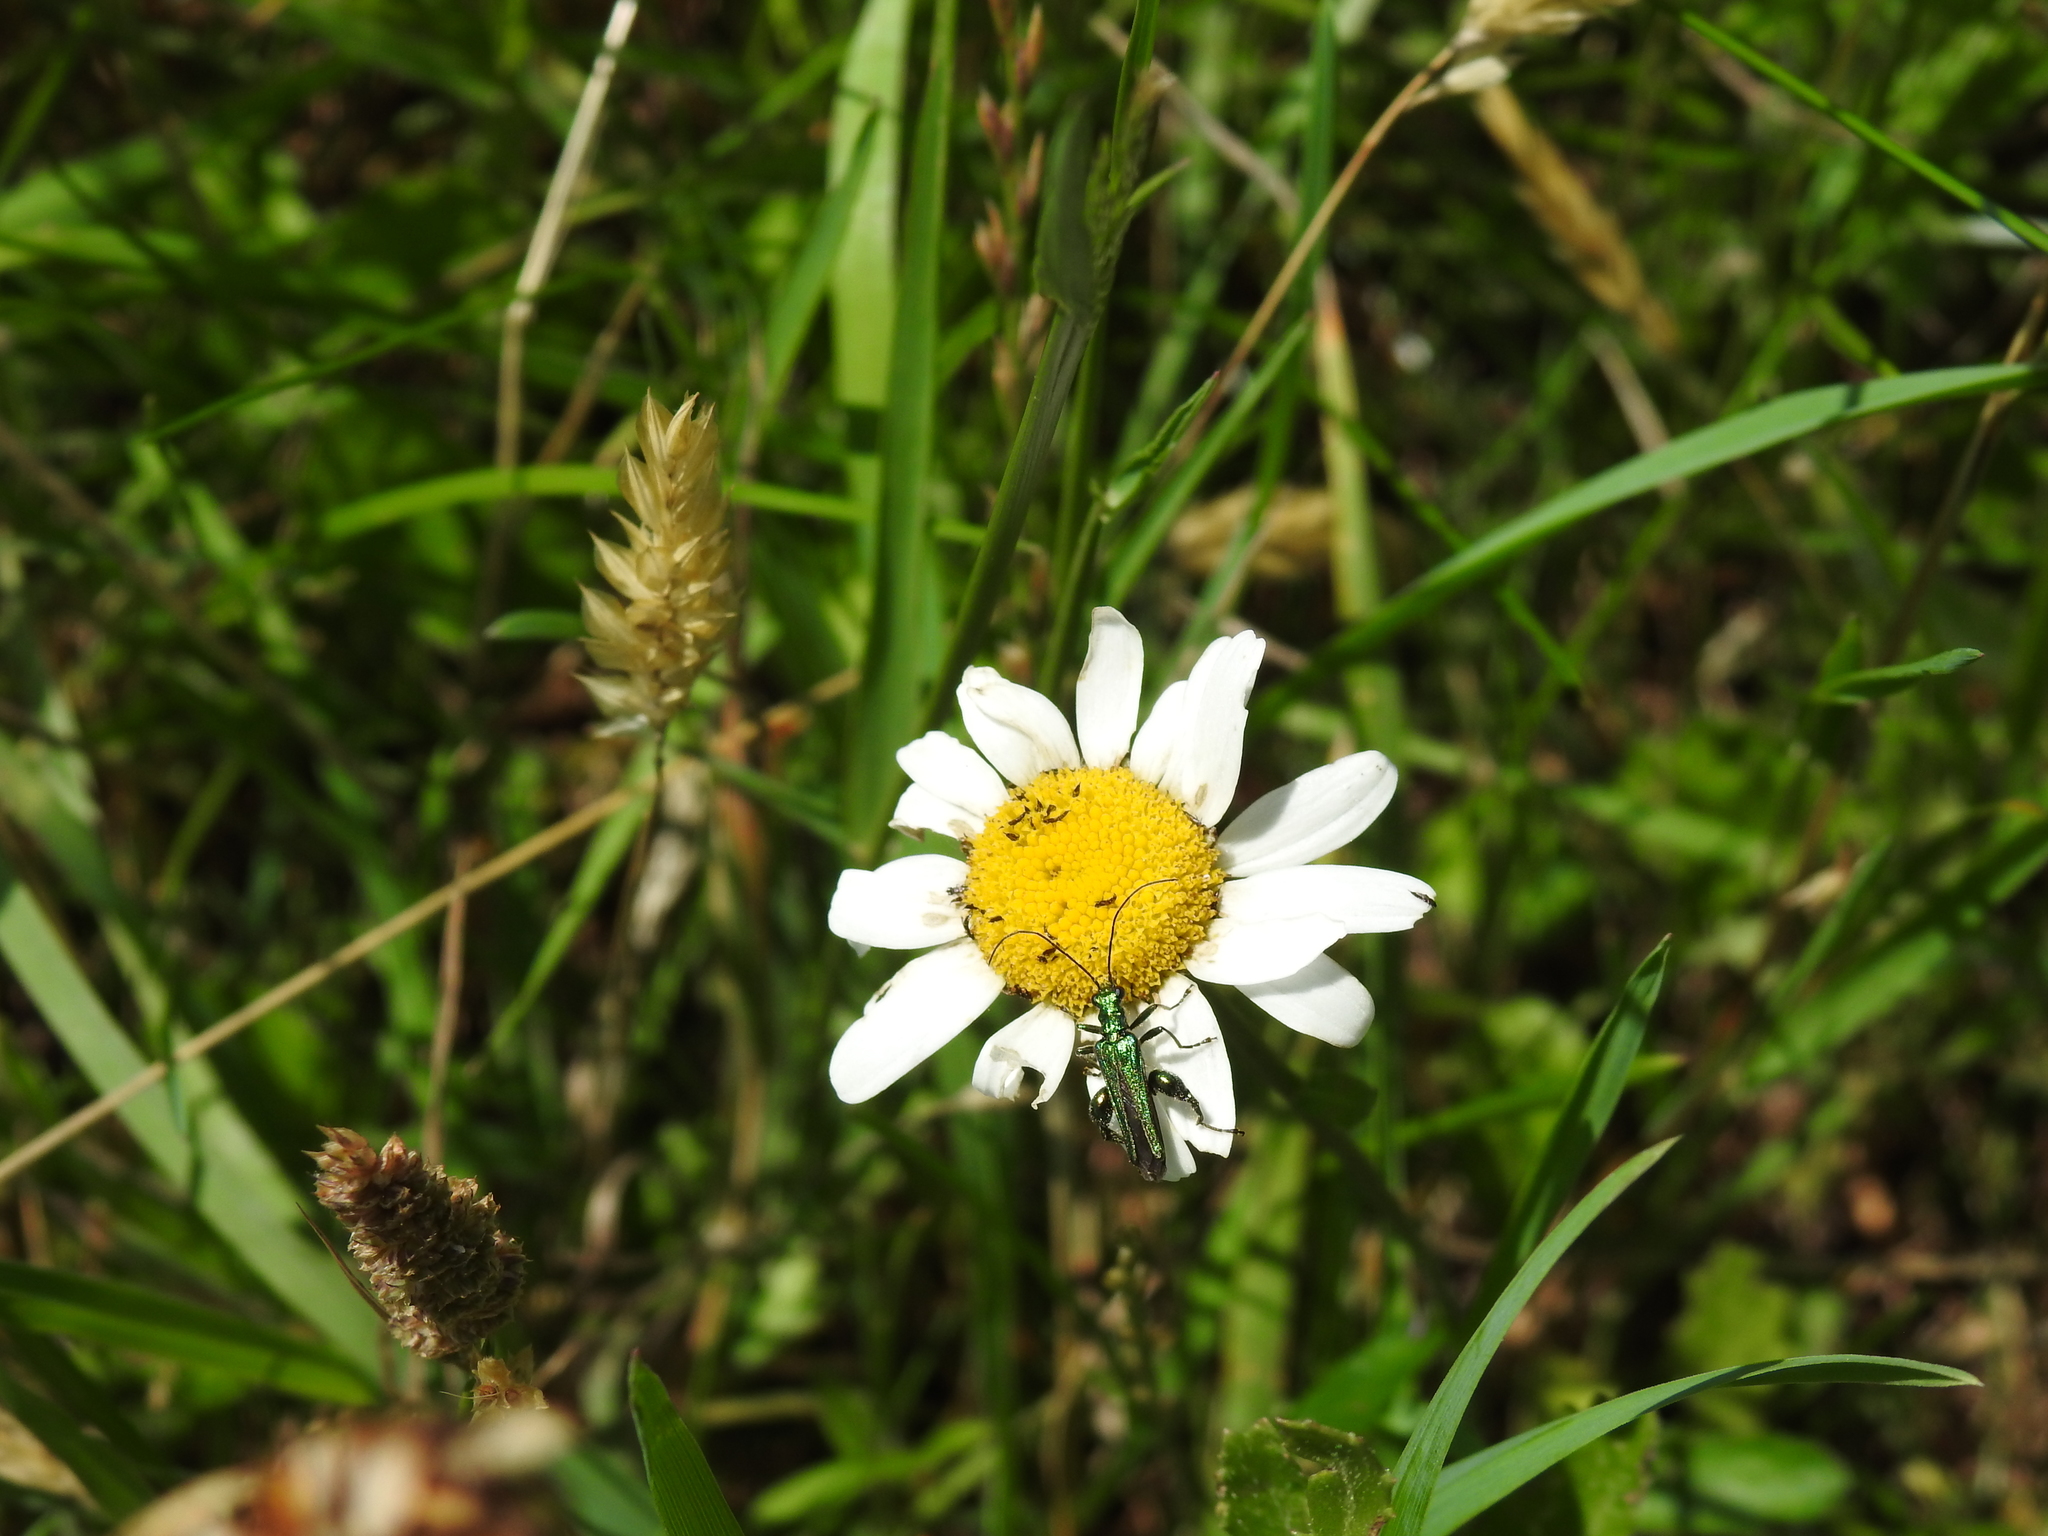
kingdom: Animalia
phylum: Arthropoda
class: Insecta
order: Coleoptera
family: Oedemeridae
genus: Oedemera
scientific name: Oedemera nobilis
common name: Swollen-thighed beetle
